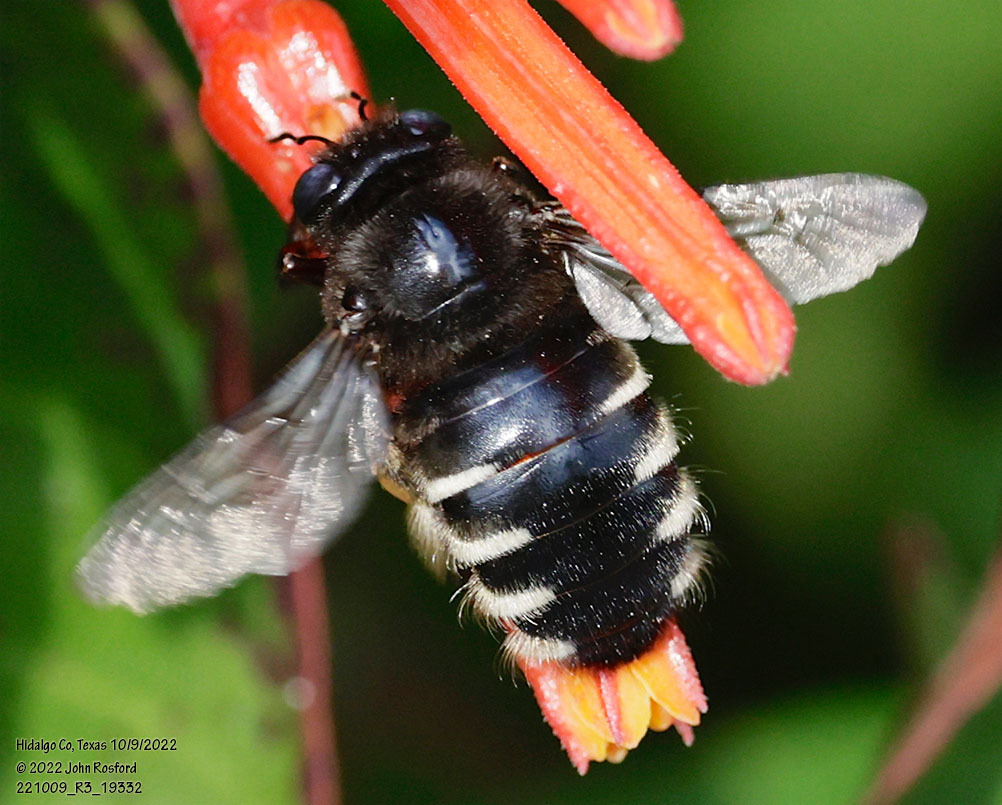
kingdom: Animalia
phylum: Arthropoda
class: Insecta
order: Hymenoptera
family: Apidae
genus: Xylocopa
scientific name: Xylocopa tabaniformis
